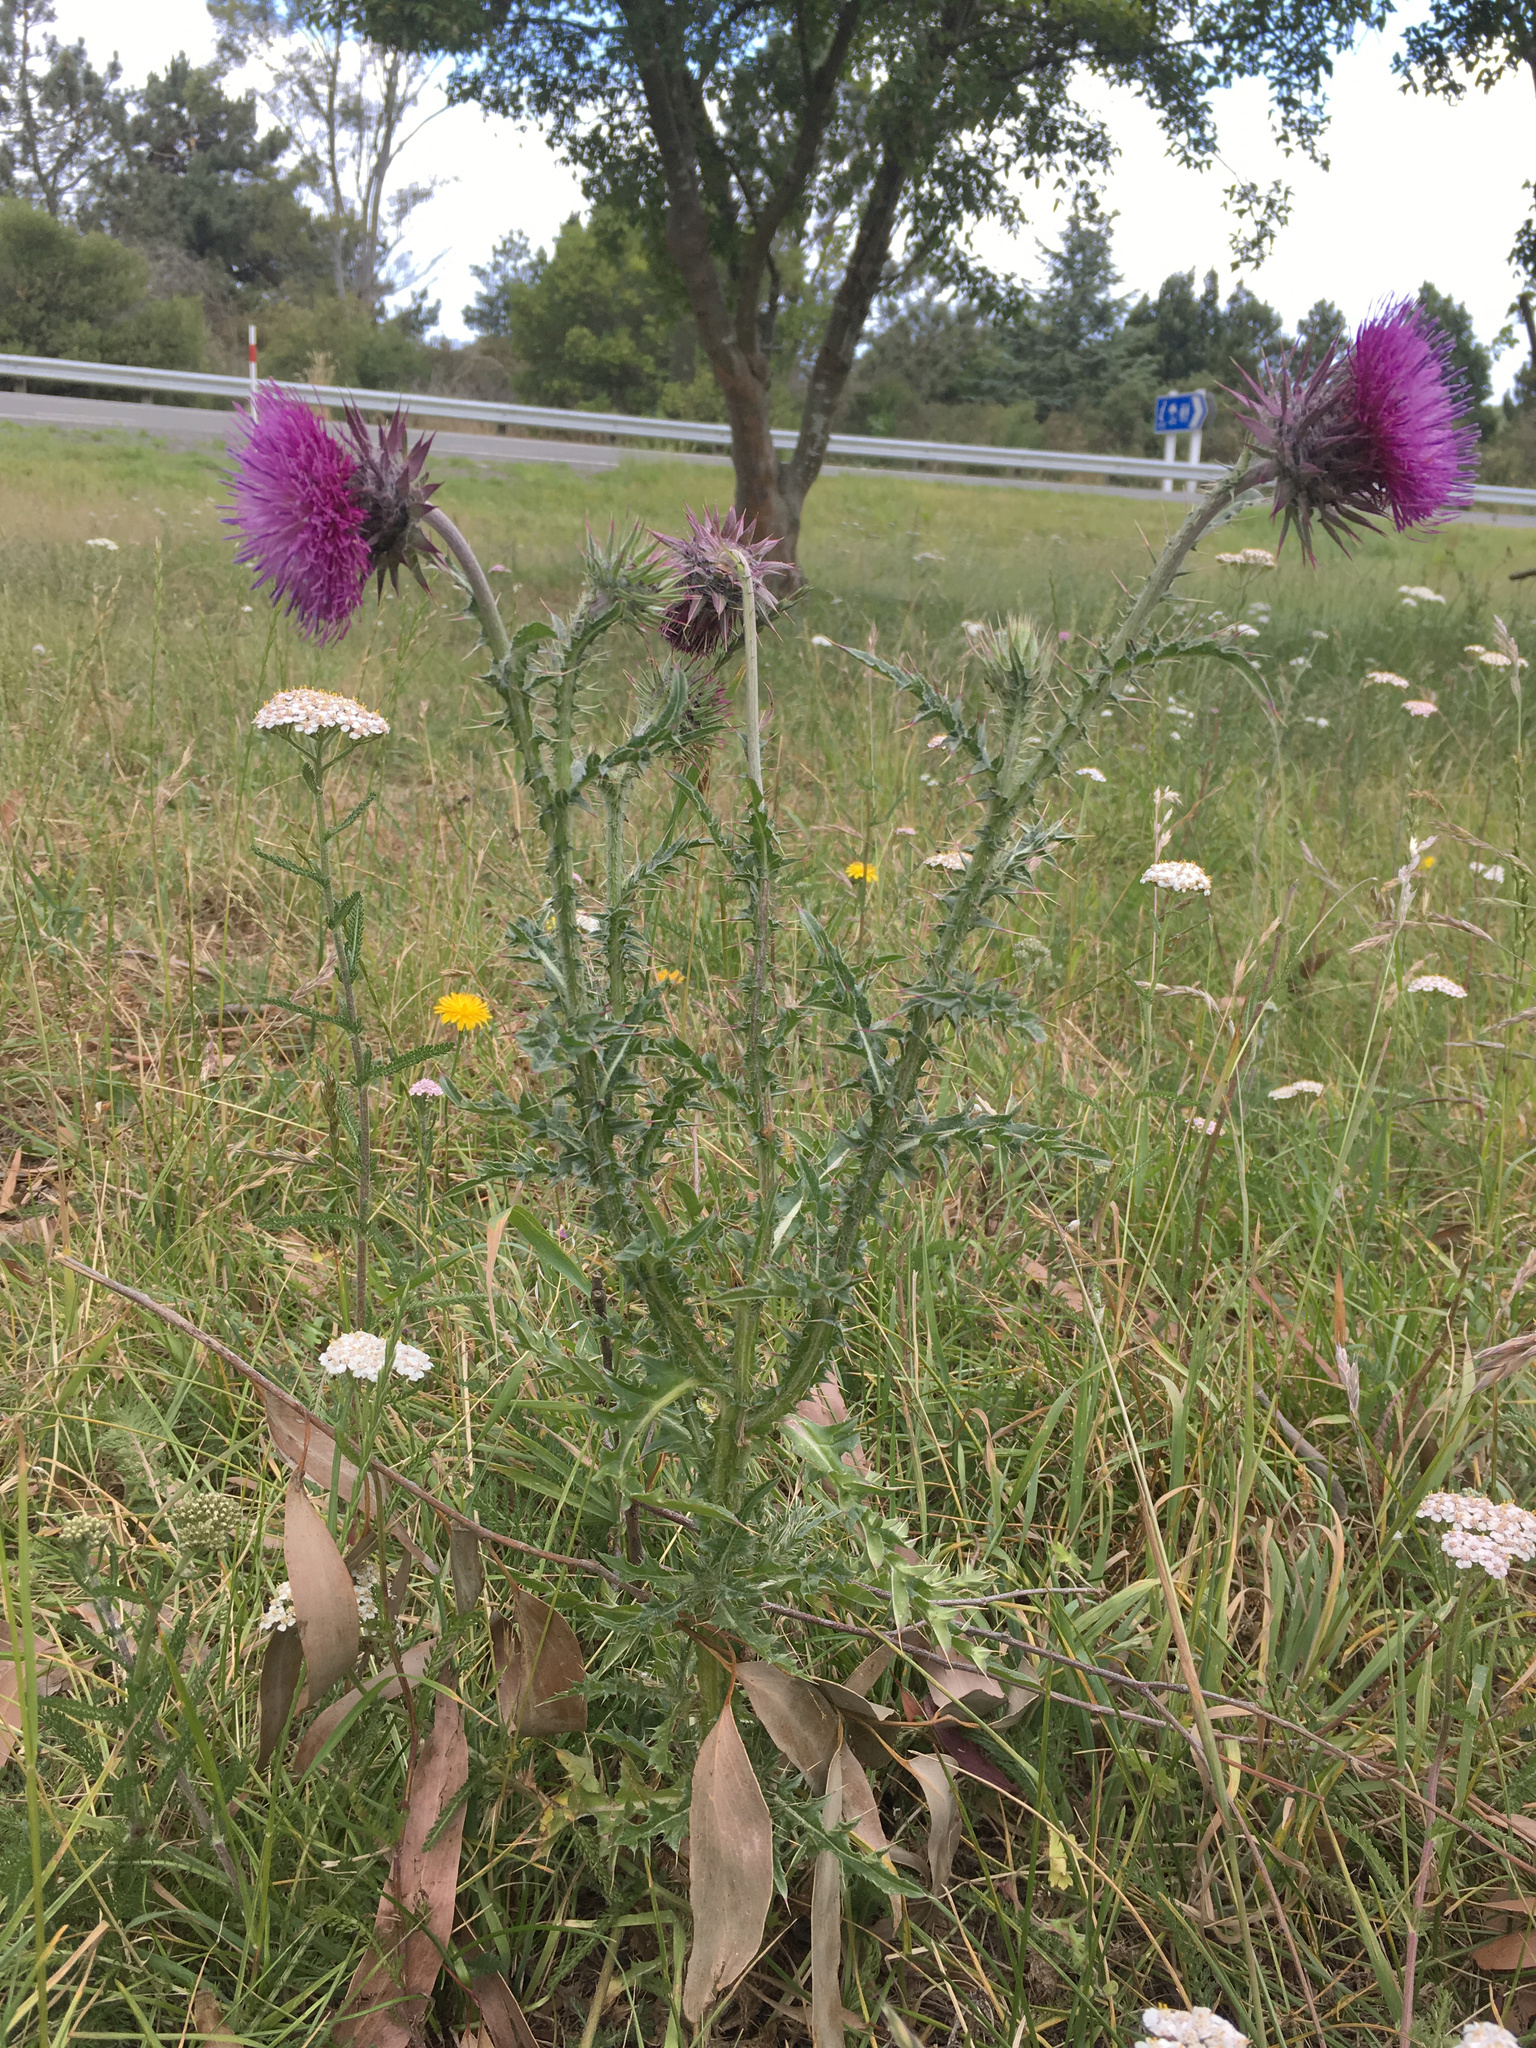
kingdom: Plantae
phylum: Tracheophyta
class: Magnoliopsida
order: Asterales
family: Asteraceae
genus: Carduus
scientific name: Carduus nutans
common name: Musk thistle
